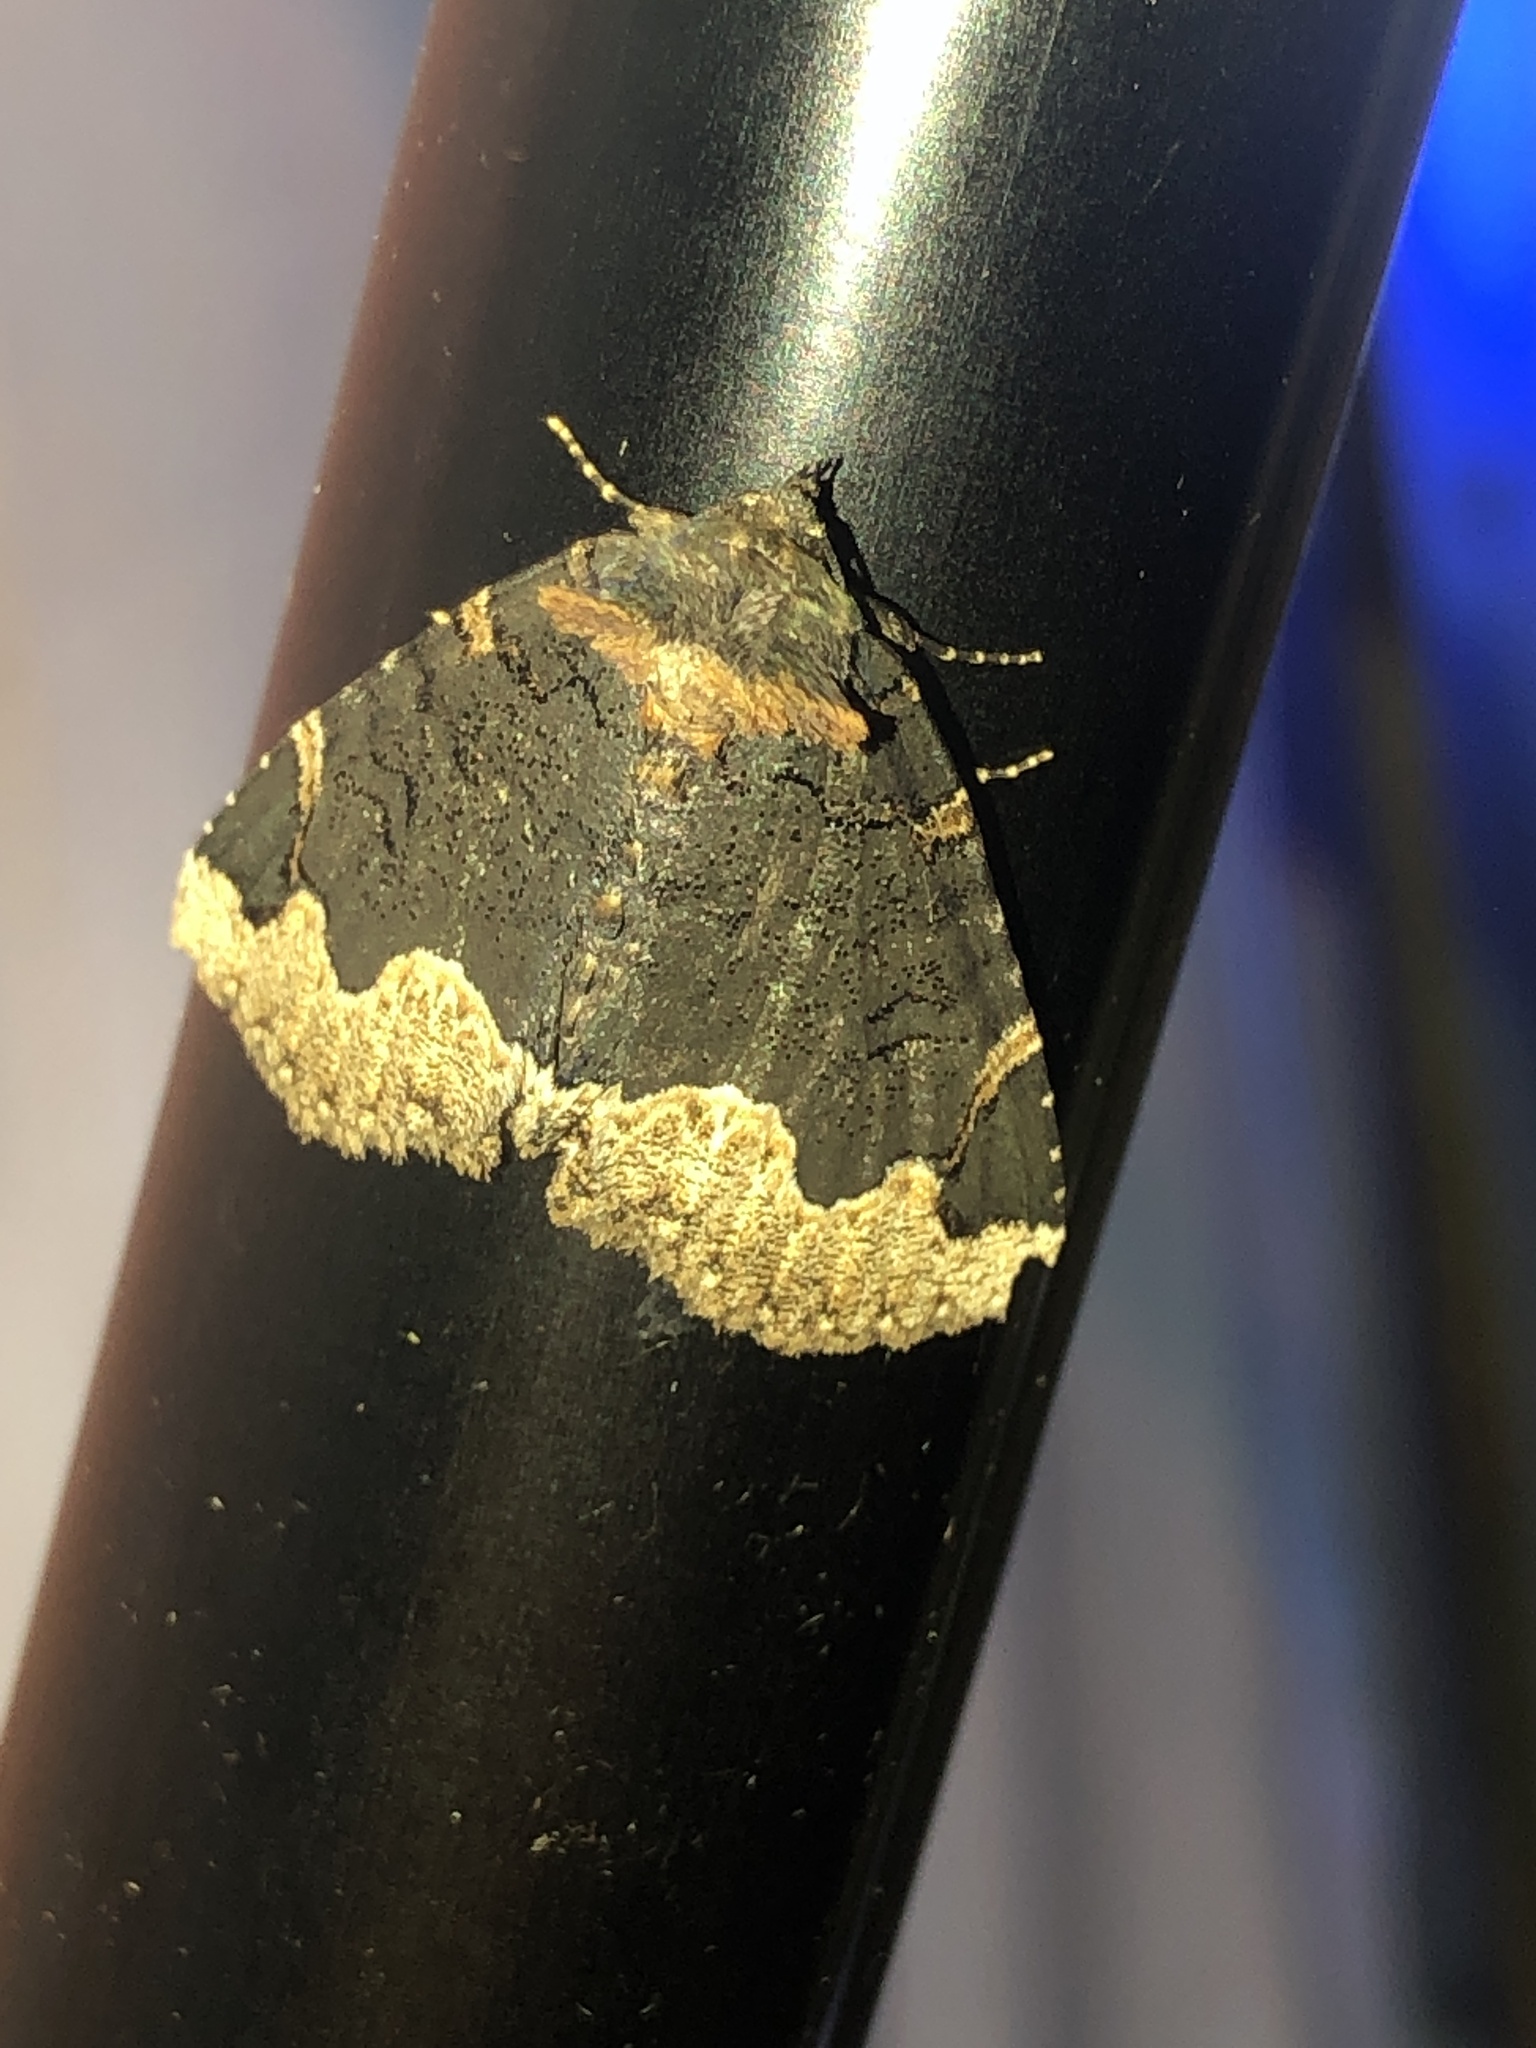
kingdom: Animalia
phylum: Arthropoda
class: Insecta
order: Lepidoptera
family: Erebidae
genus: Zale
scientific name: Zale horrida
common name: Horrid zale moth
